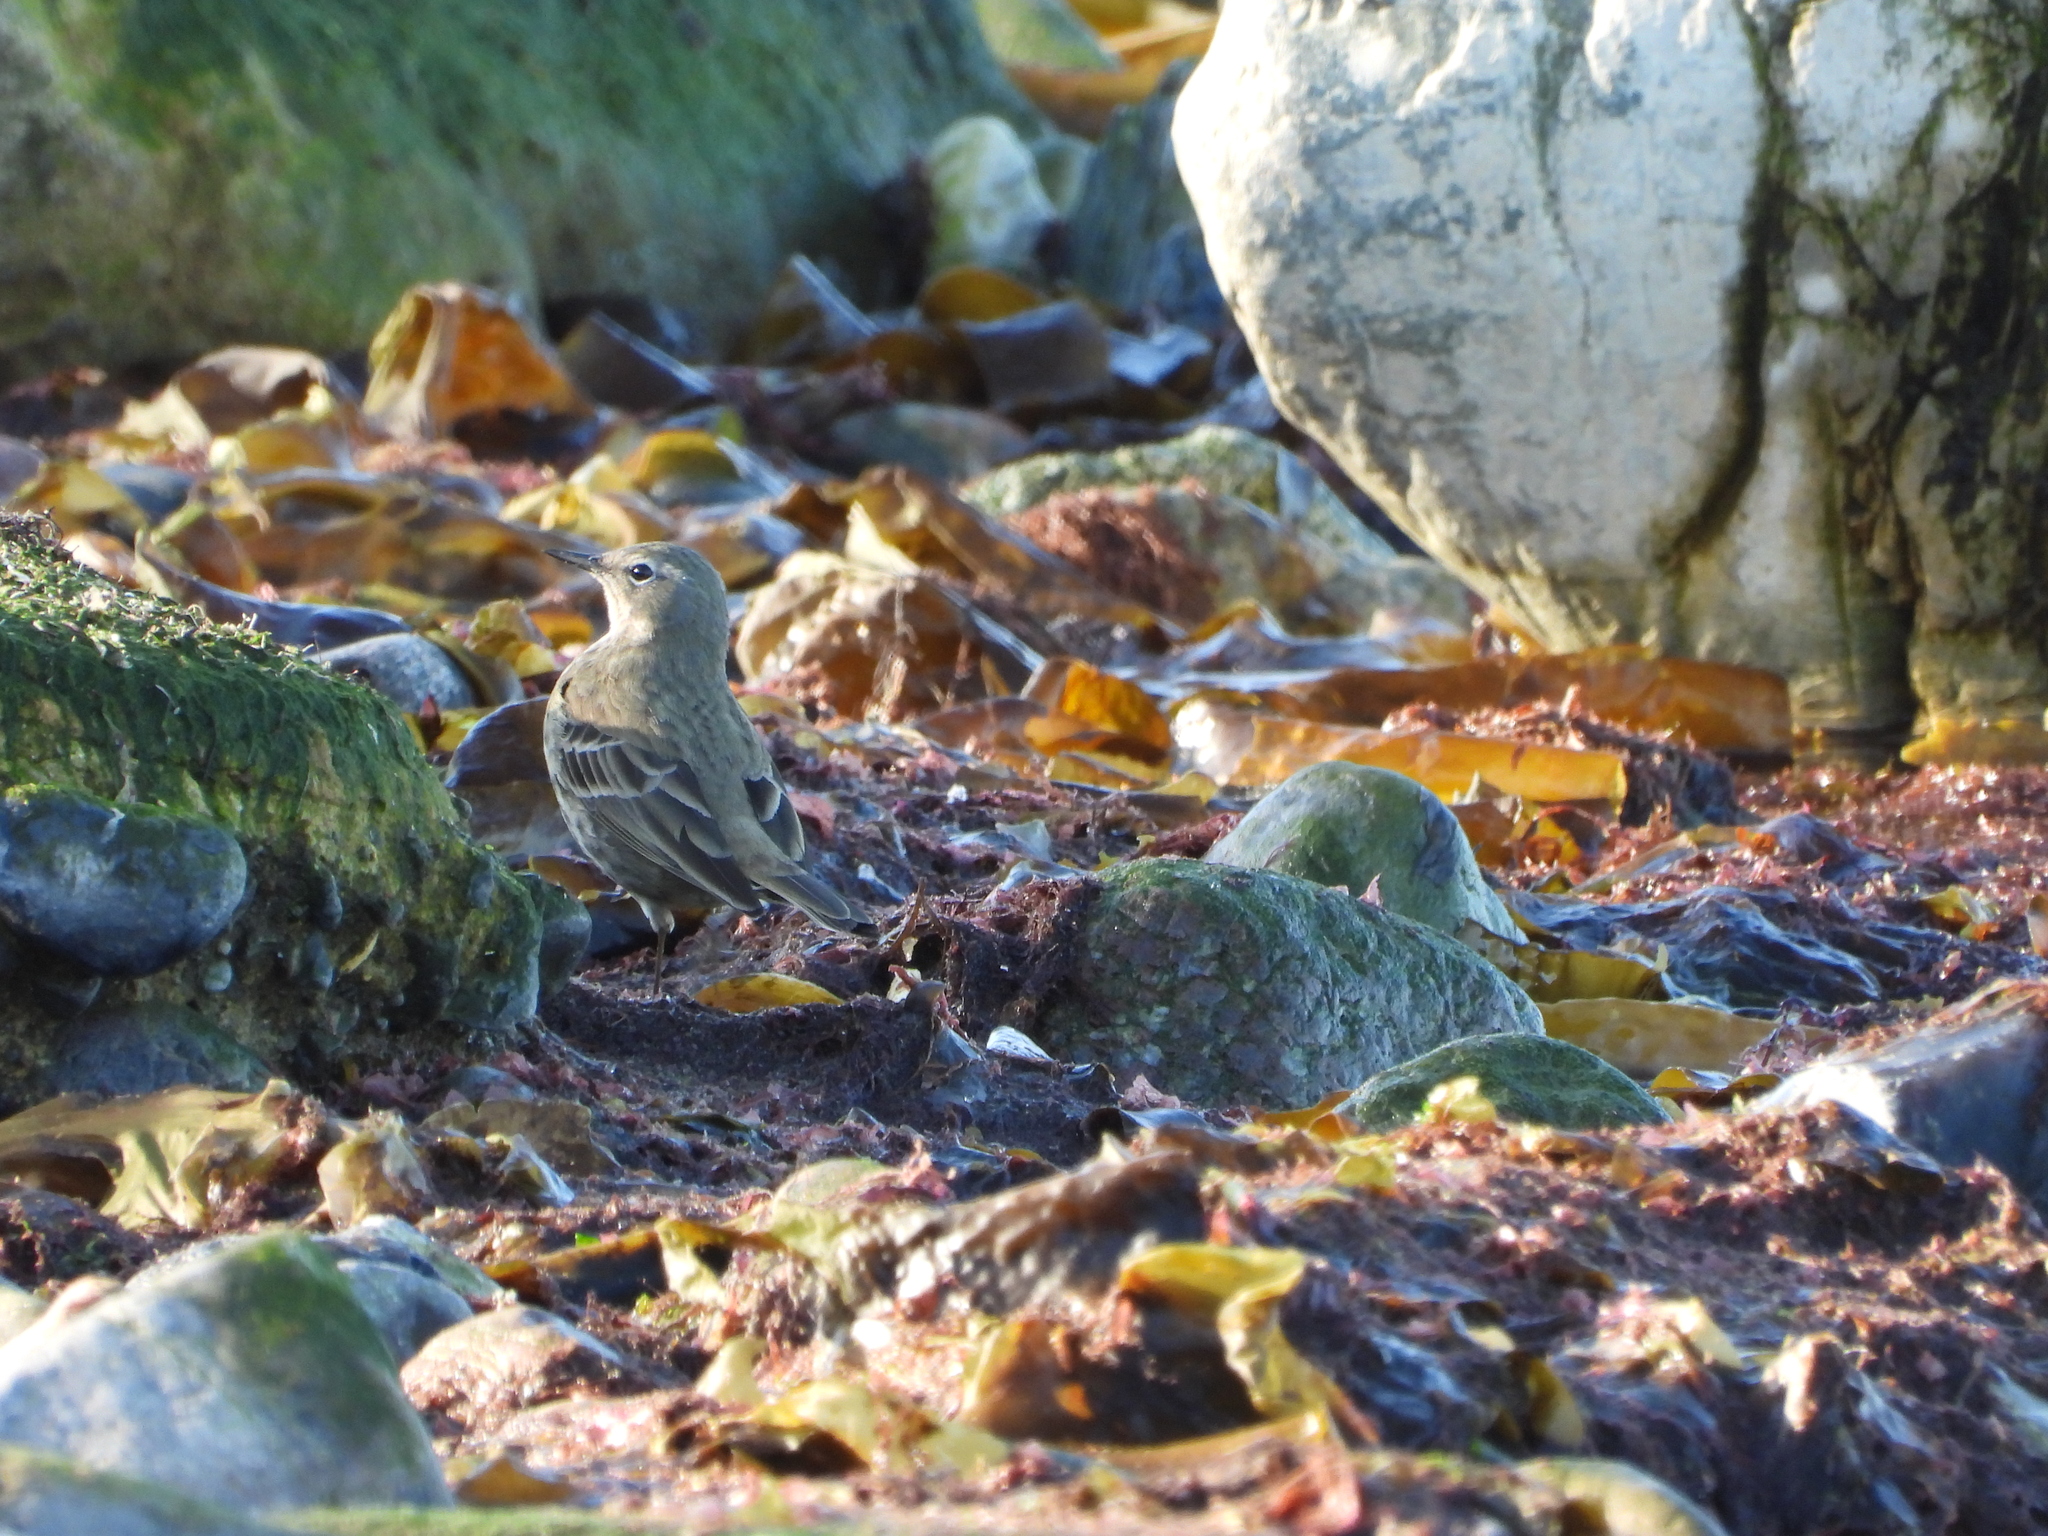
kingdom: Animalia
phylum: Chordata
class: Aves
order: Passeriformes
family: Motacillidae
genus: Anthus
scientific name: Anthus petrosus
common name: Eurasian rock pipit
